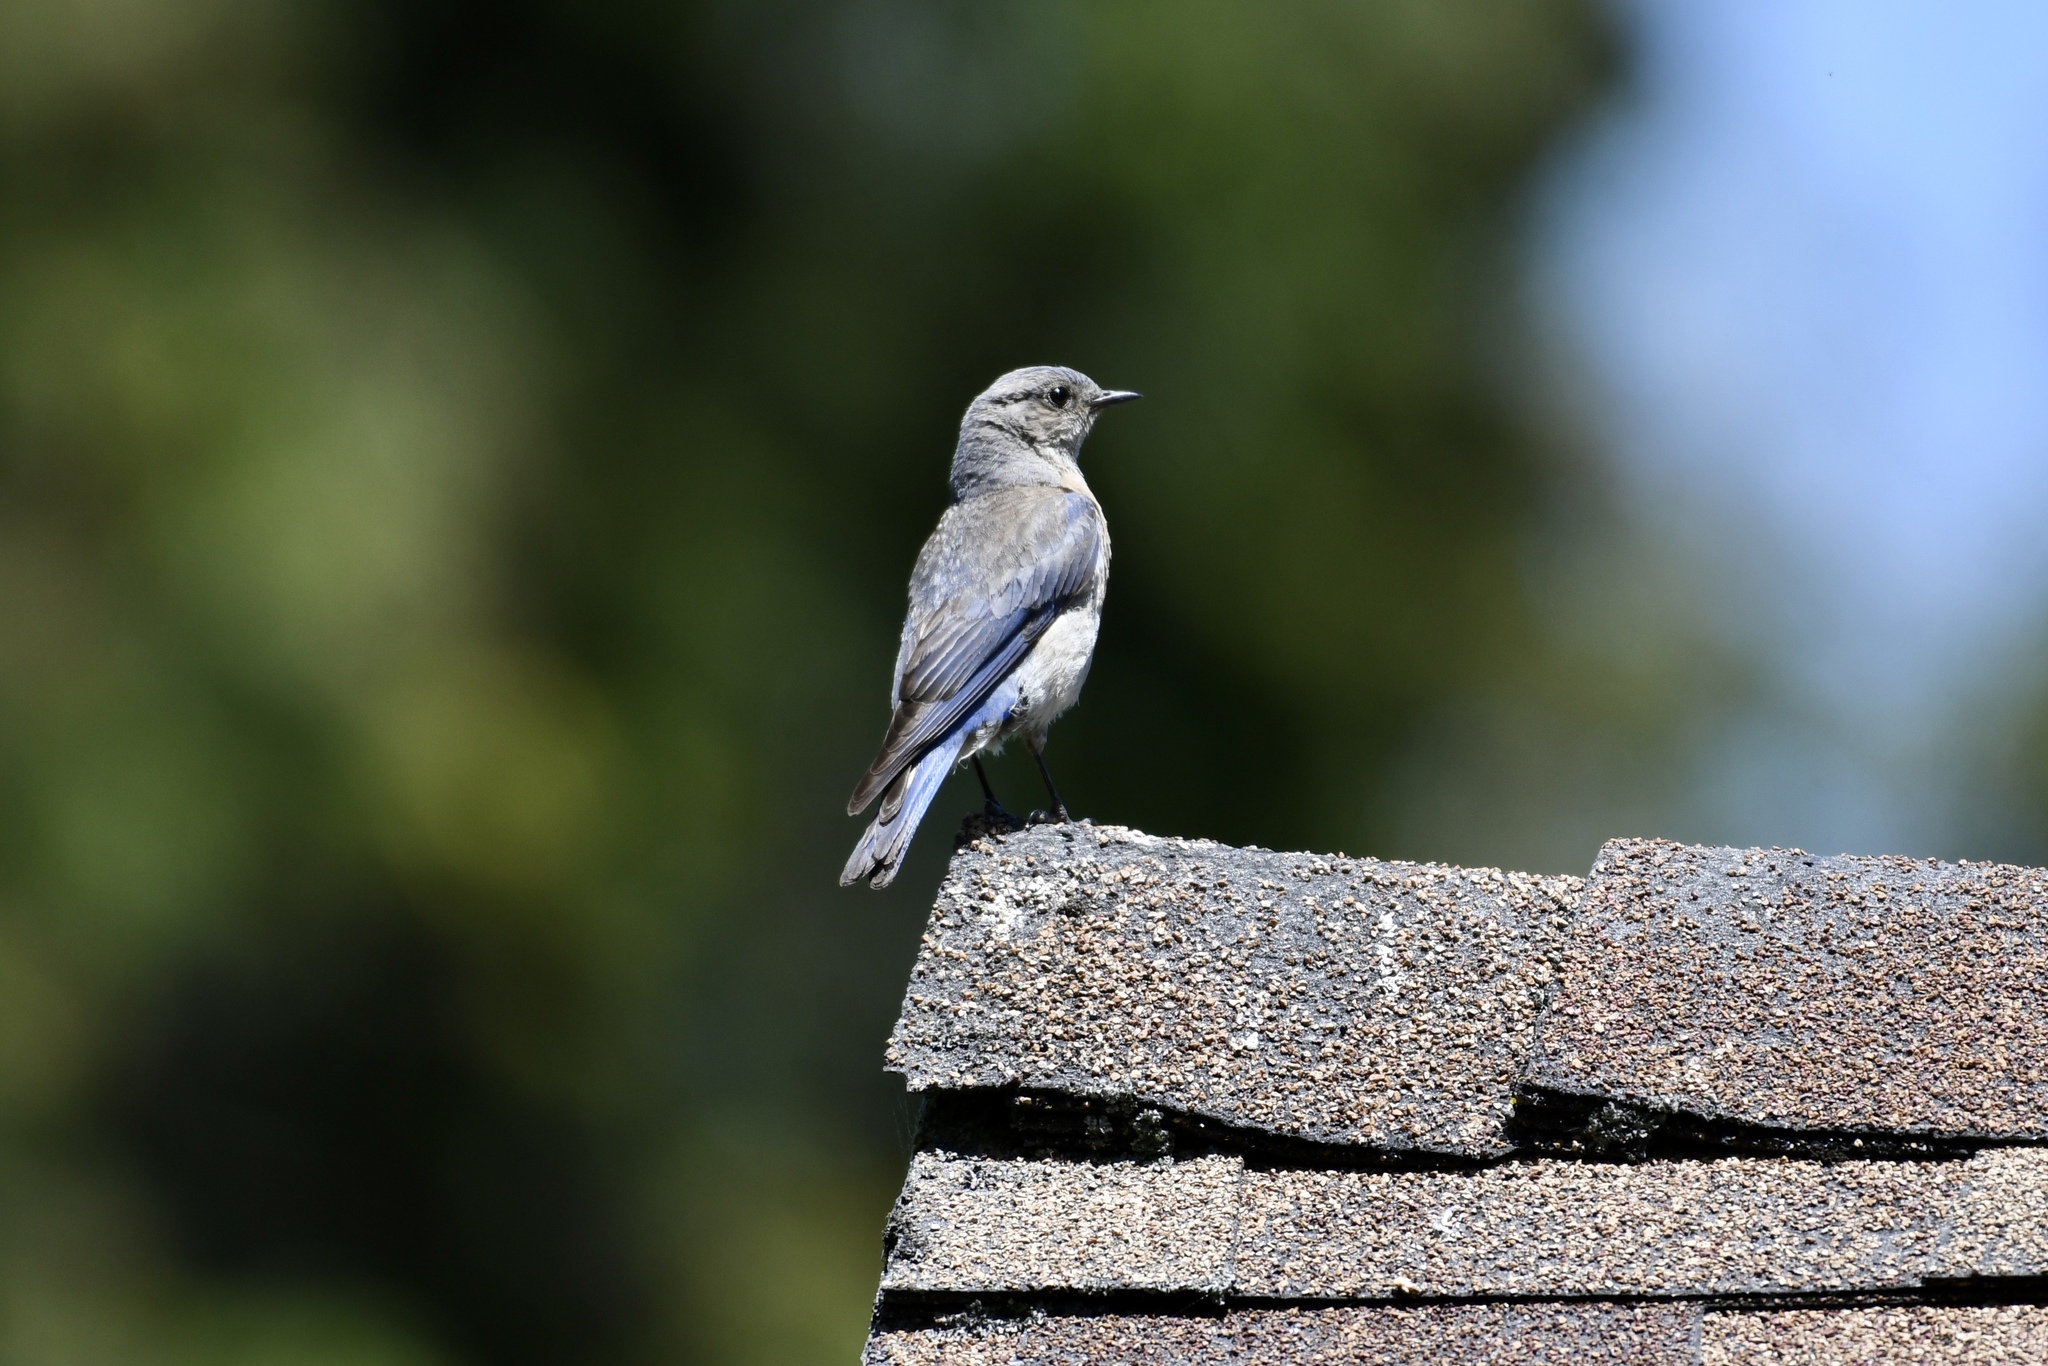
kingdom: Animalia
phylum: Chordata
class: Aves
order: Passeriformes
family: Turdidae
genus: Sialia
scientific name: Sialia mexicana
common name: Western bluebird
